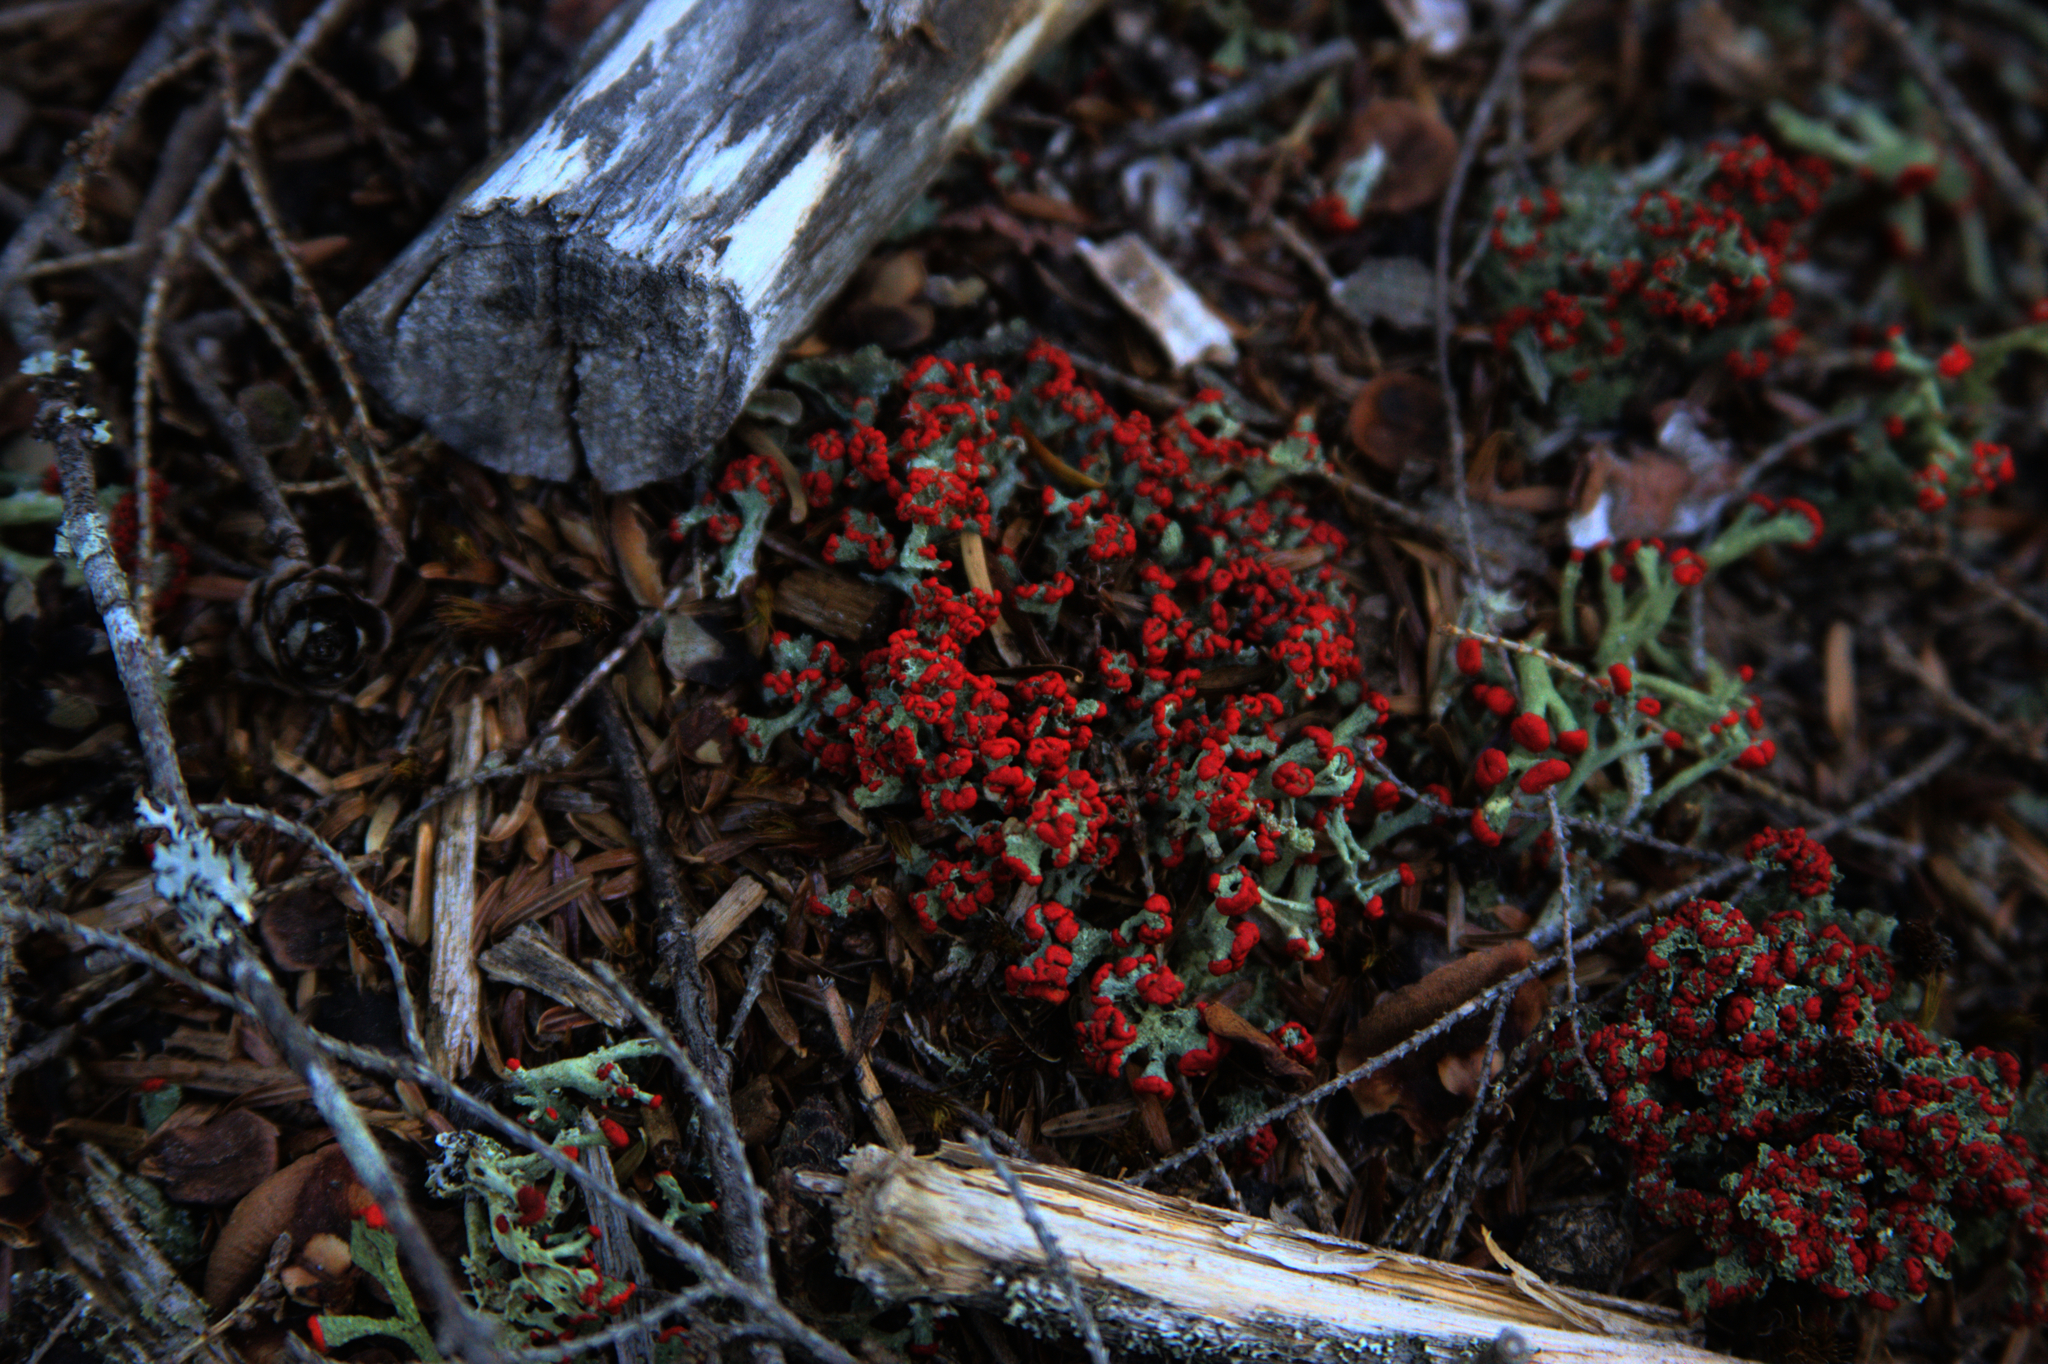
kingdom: Fungi
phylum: Ascomycota
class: Lecanoromycetes
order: Lecanorales
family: Cladoniaceae
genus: Cladonia
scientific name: Cladonia cristatella
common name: British soldier lichen
